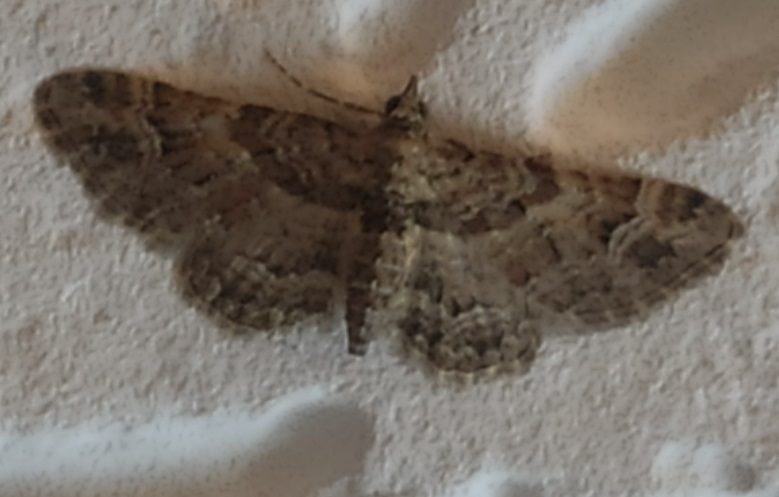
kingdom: Animalia
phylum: Arthropoda
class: Insecta
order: Lepidoptera
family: Geometridae
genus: Gymnoscelis
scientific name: Gymnoscelis rufifasciata
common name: Double-striped pug
